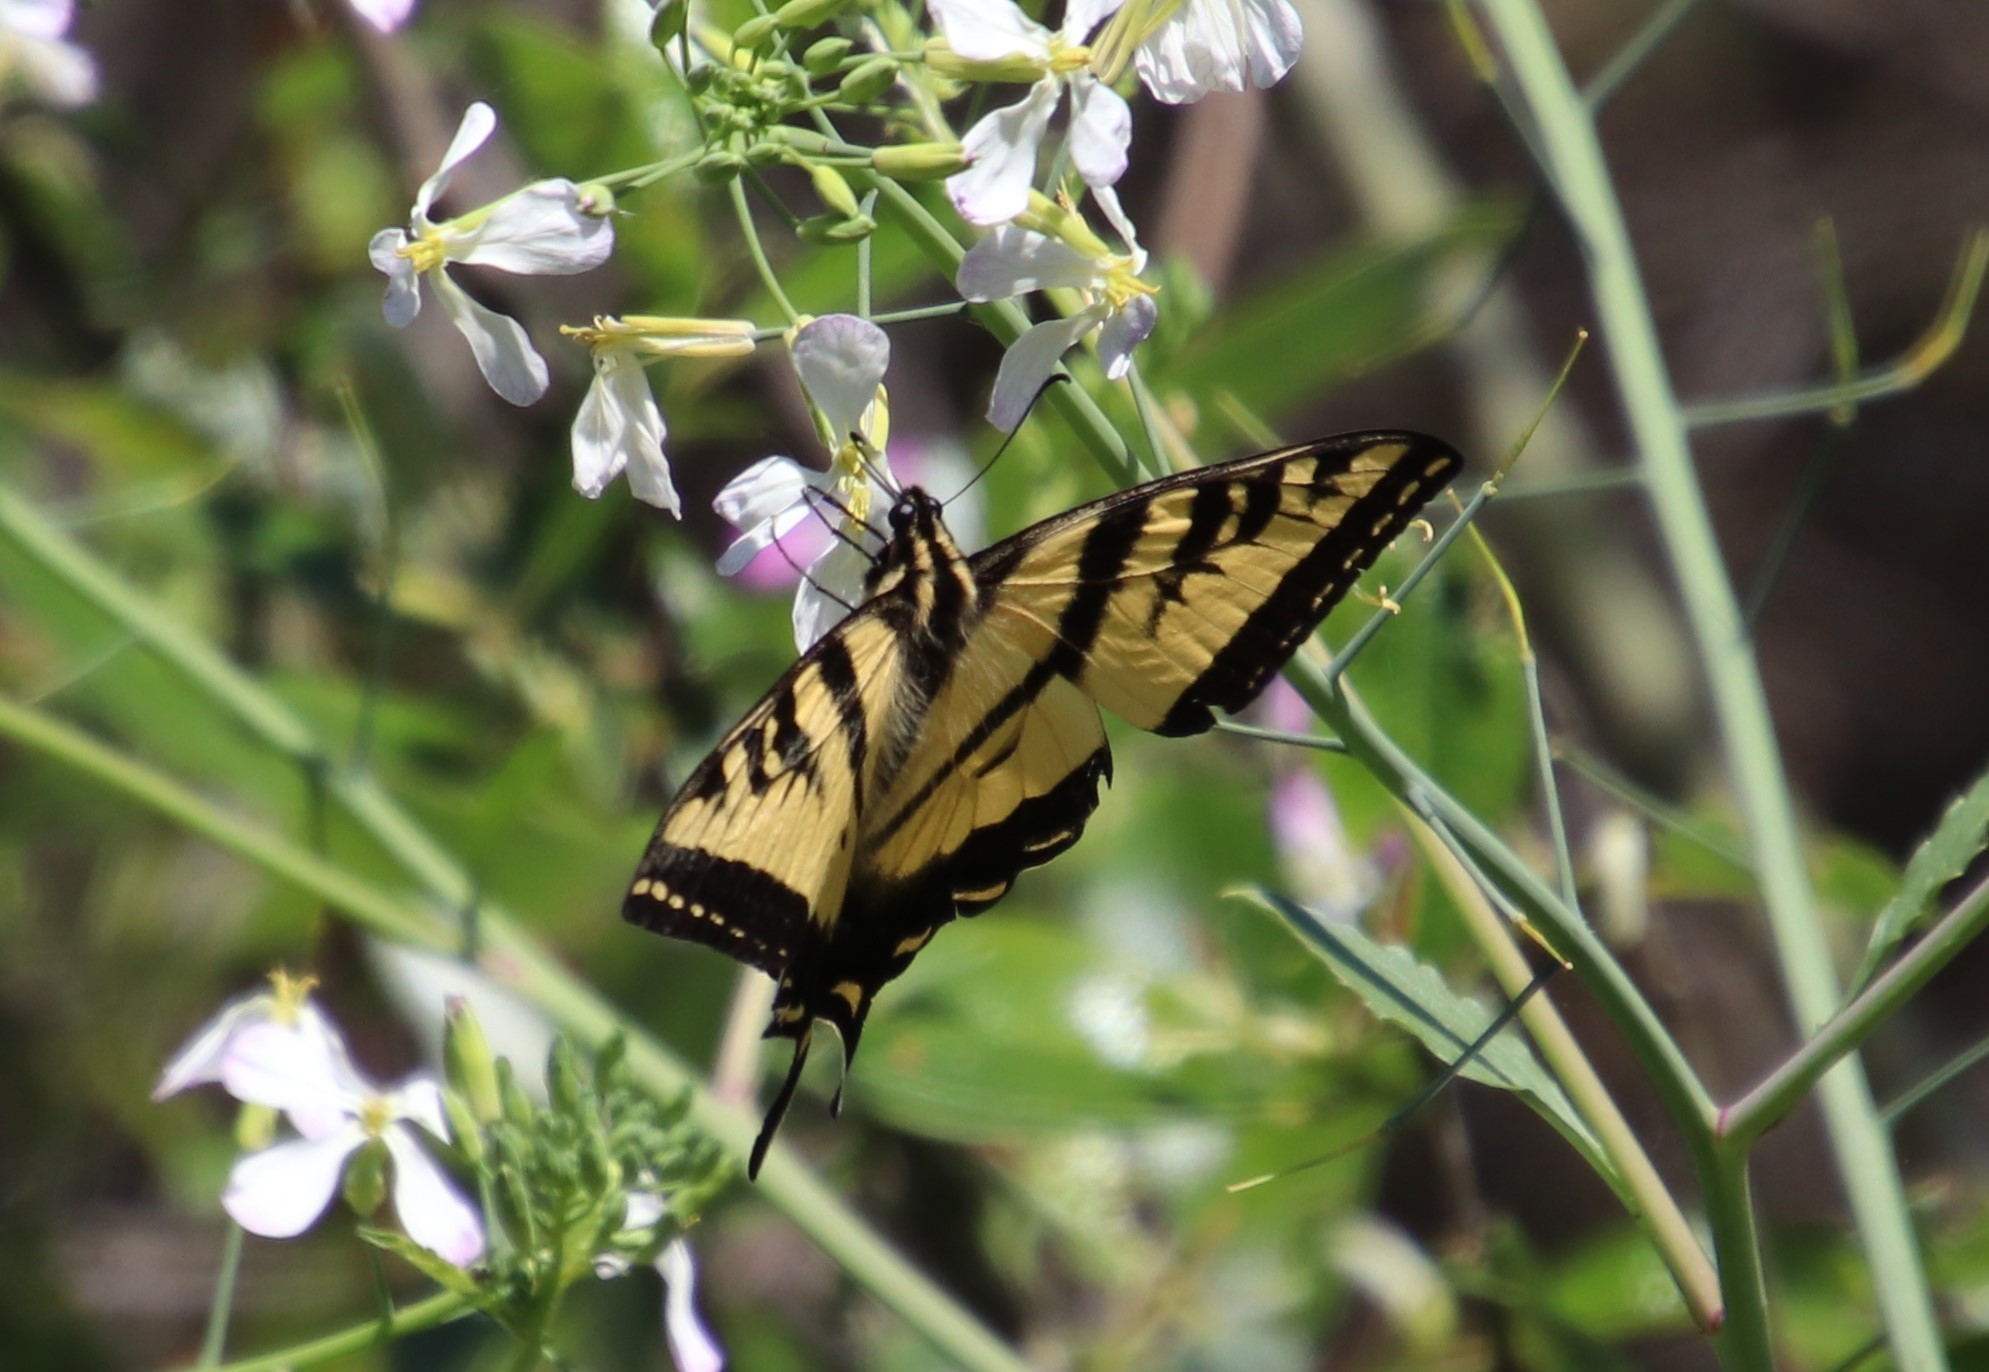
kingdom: Animalia
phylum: Arthropoda
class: Insecta
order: Lepidoptera
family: Papilionidae
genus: Papilio
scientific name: Papilio rutulus
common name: Western tiger swallowtail
